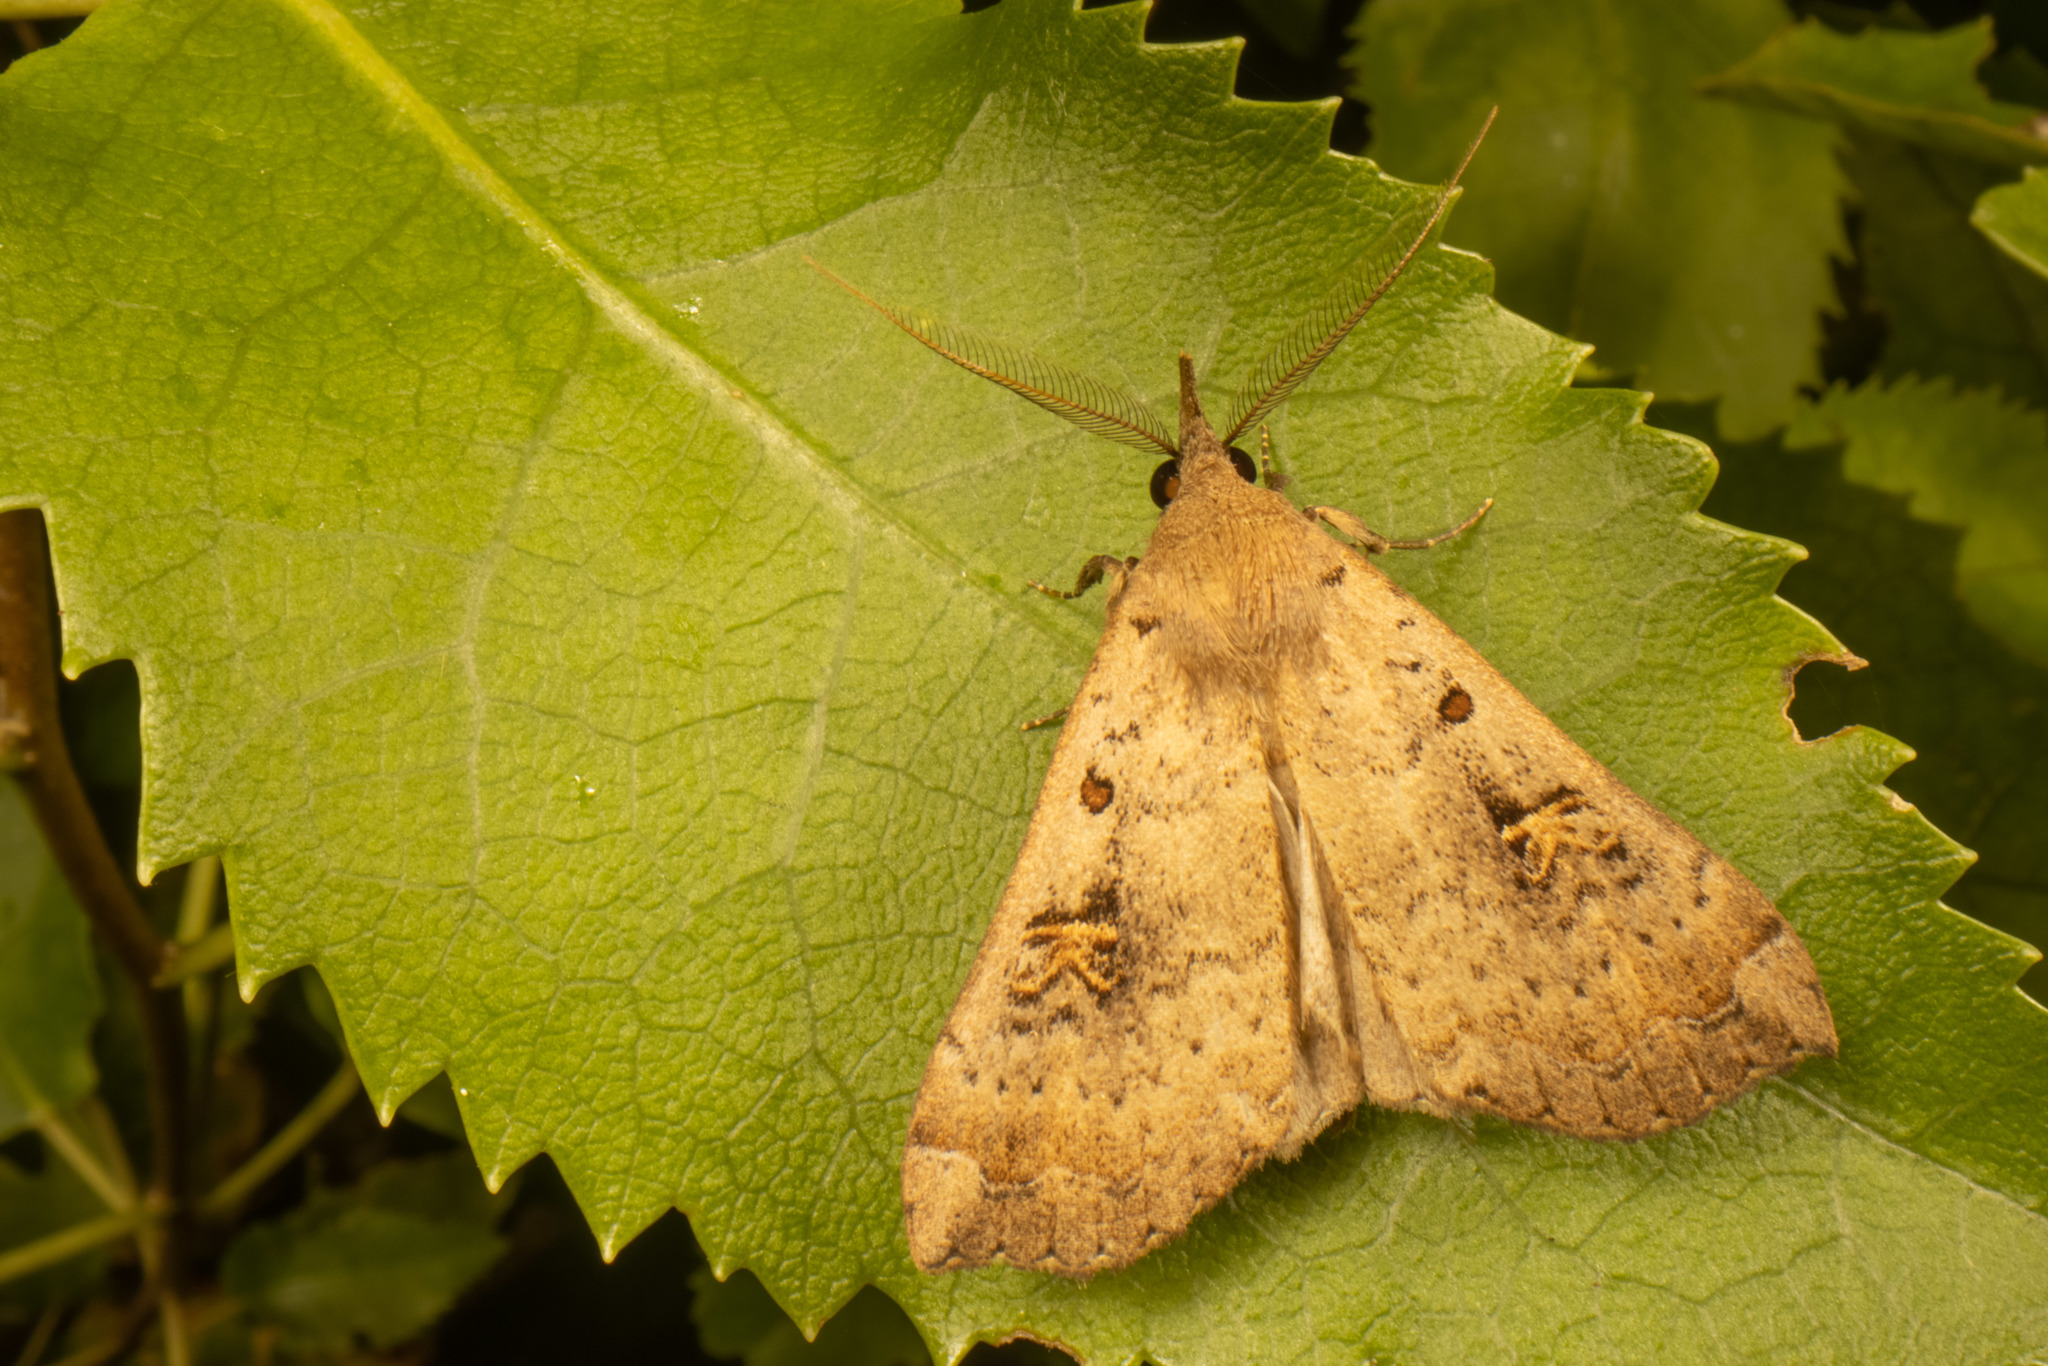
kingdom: Animalia
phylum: Arthropoda
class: Insecta
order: Lepidoptera
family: Erebidae
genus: Rhapsa
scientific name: Rhapsa scotosialis
